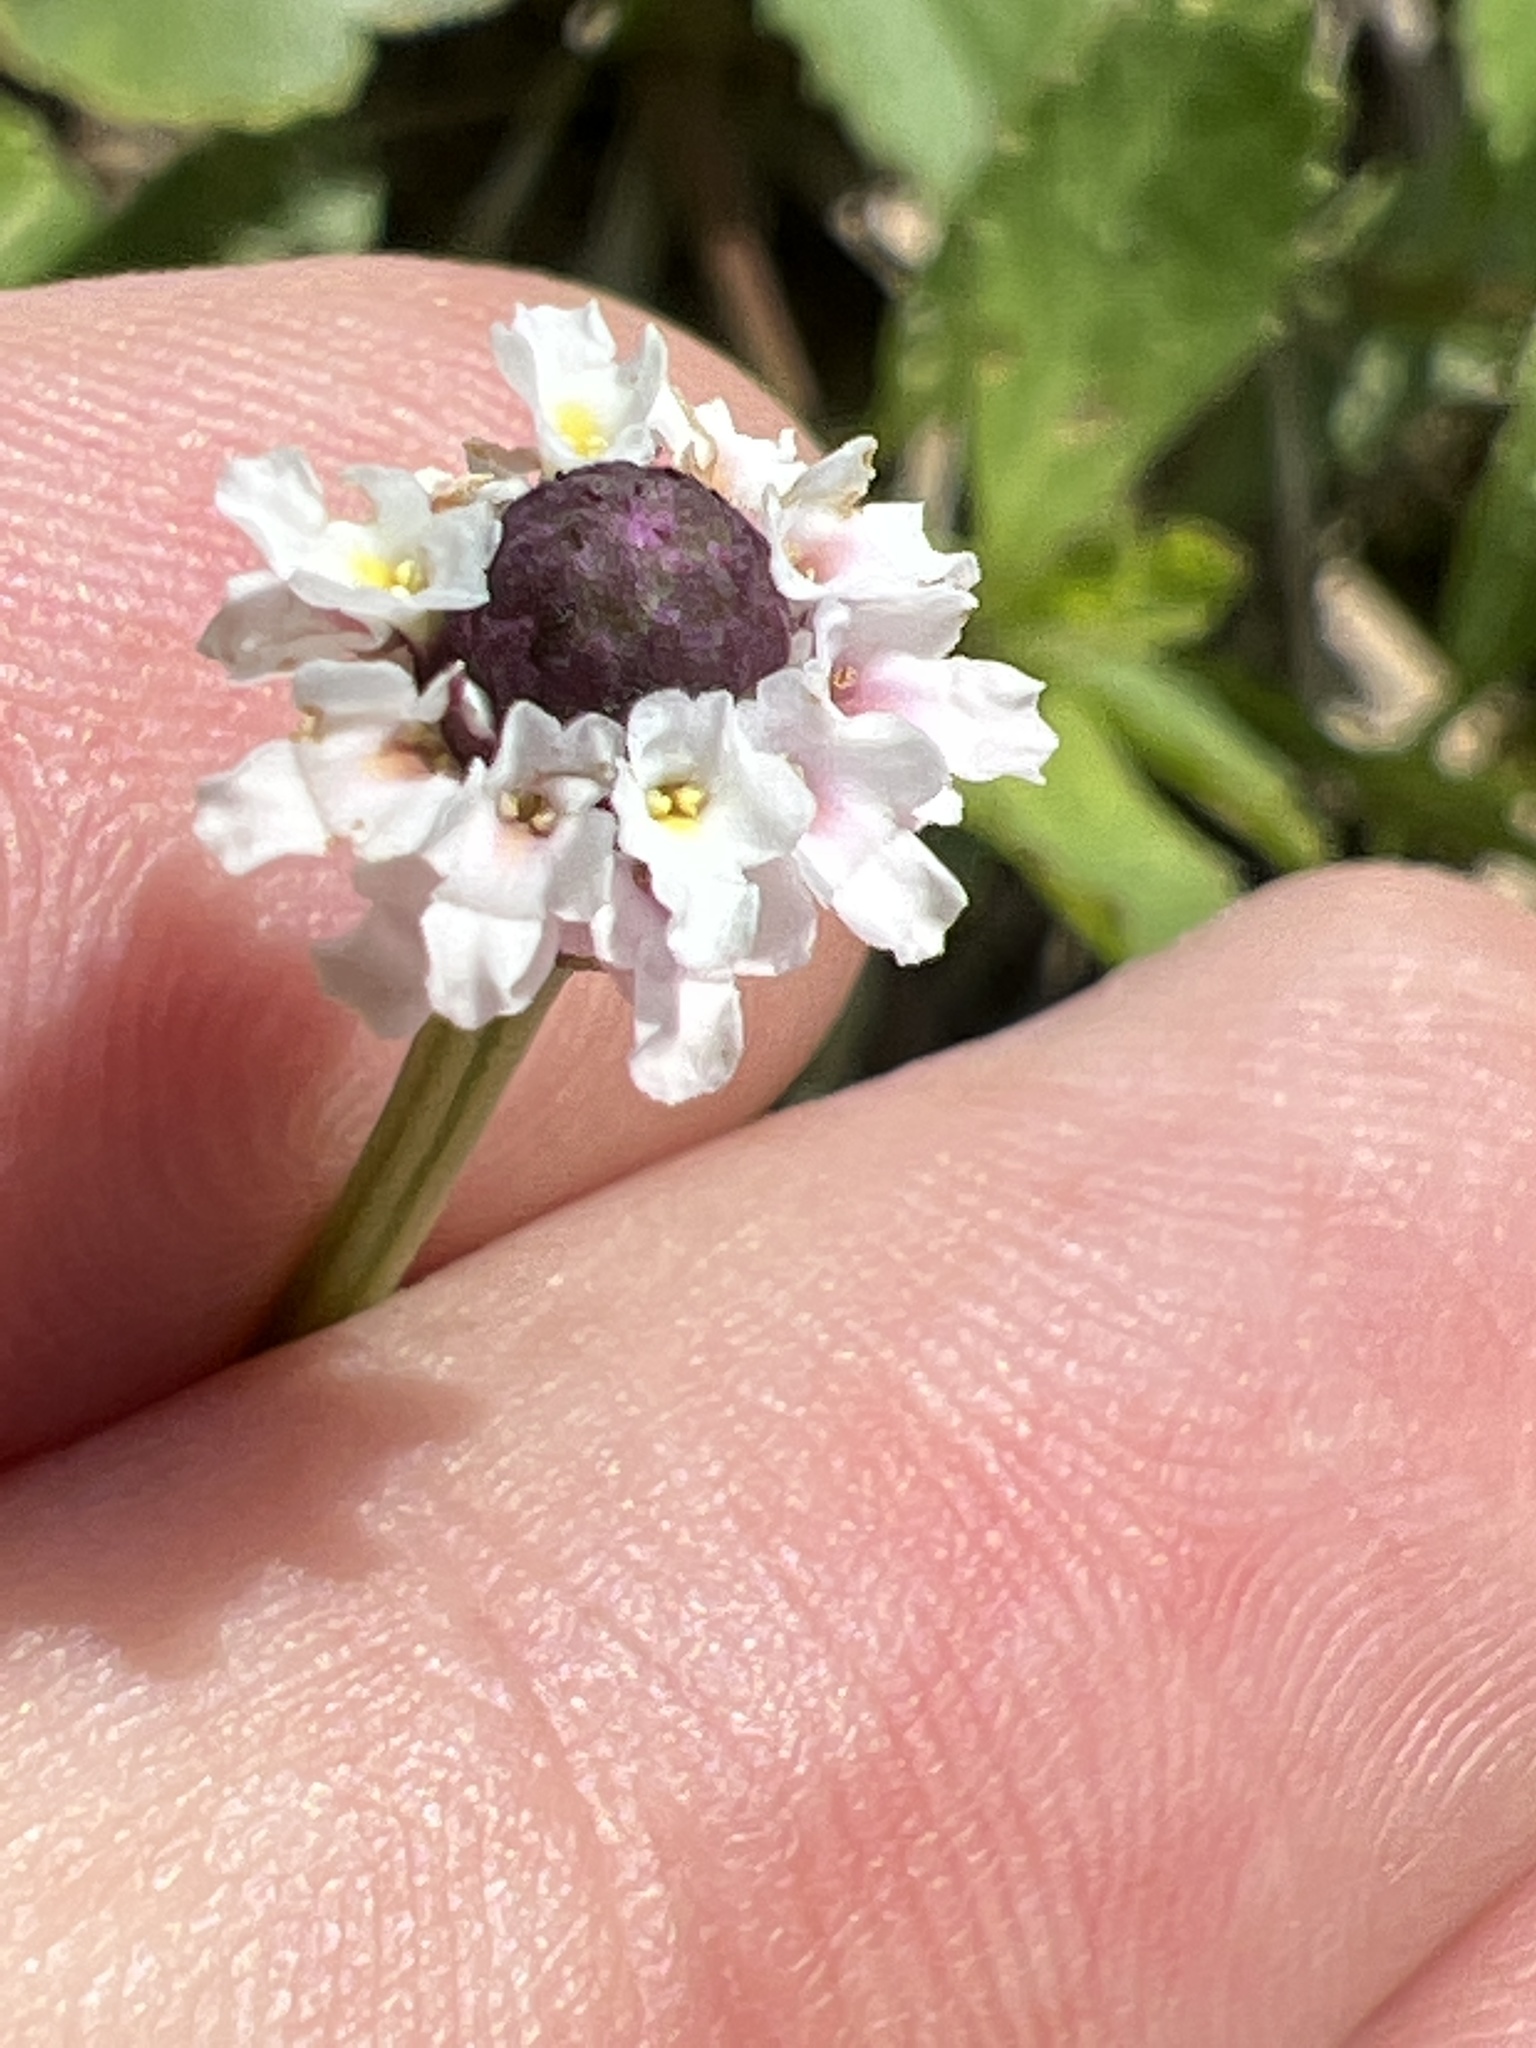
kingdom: Plantae
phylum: Tracheophyta
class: Magnoliopsida
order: Lamiales
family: Verbenaceae
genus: Phyla
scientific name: Phyla nodiflora
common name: Frogfruit
